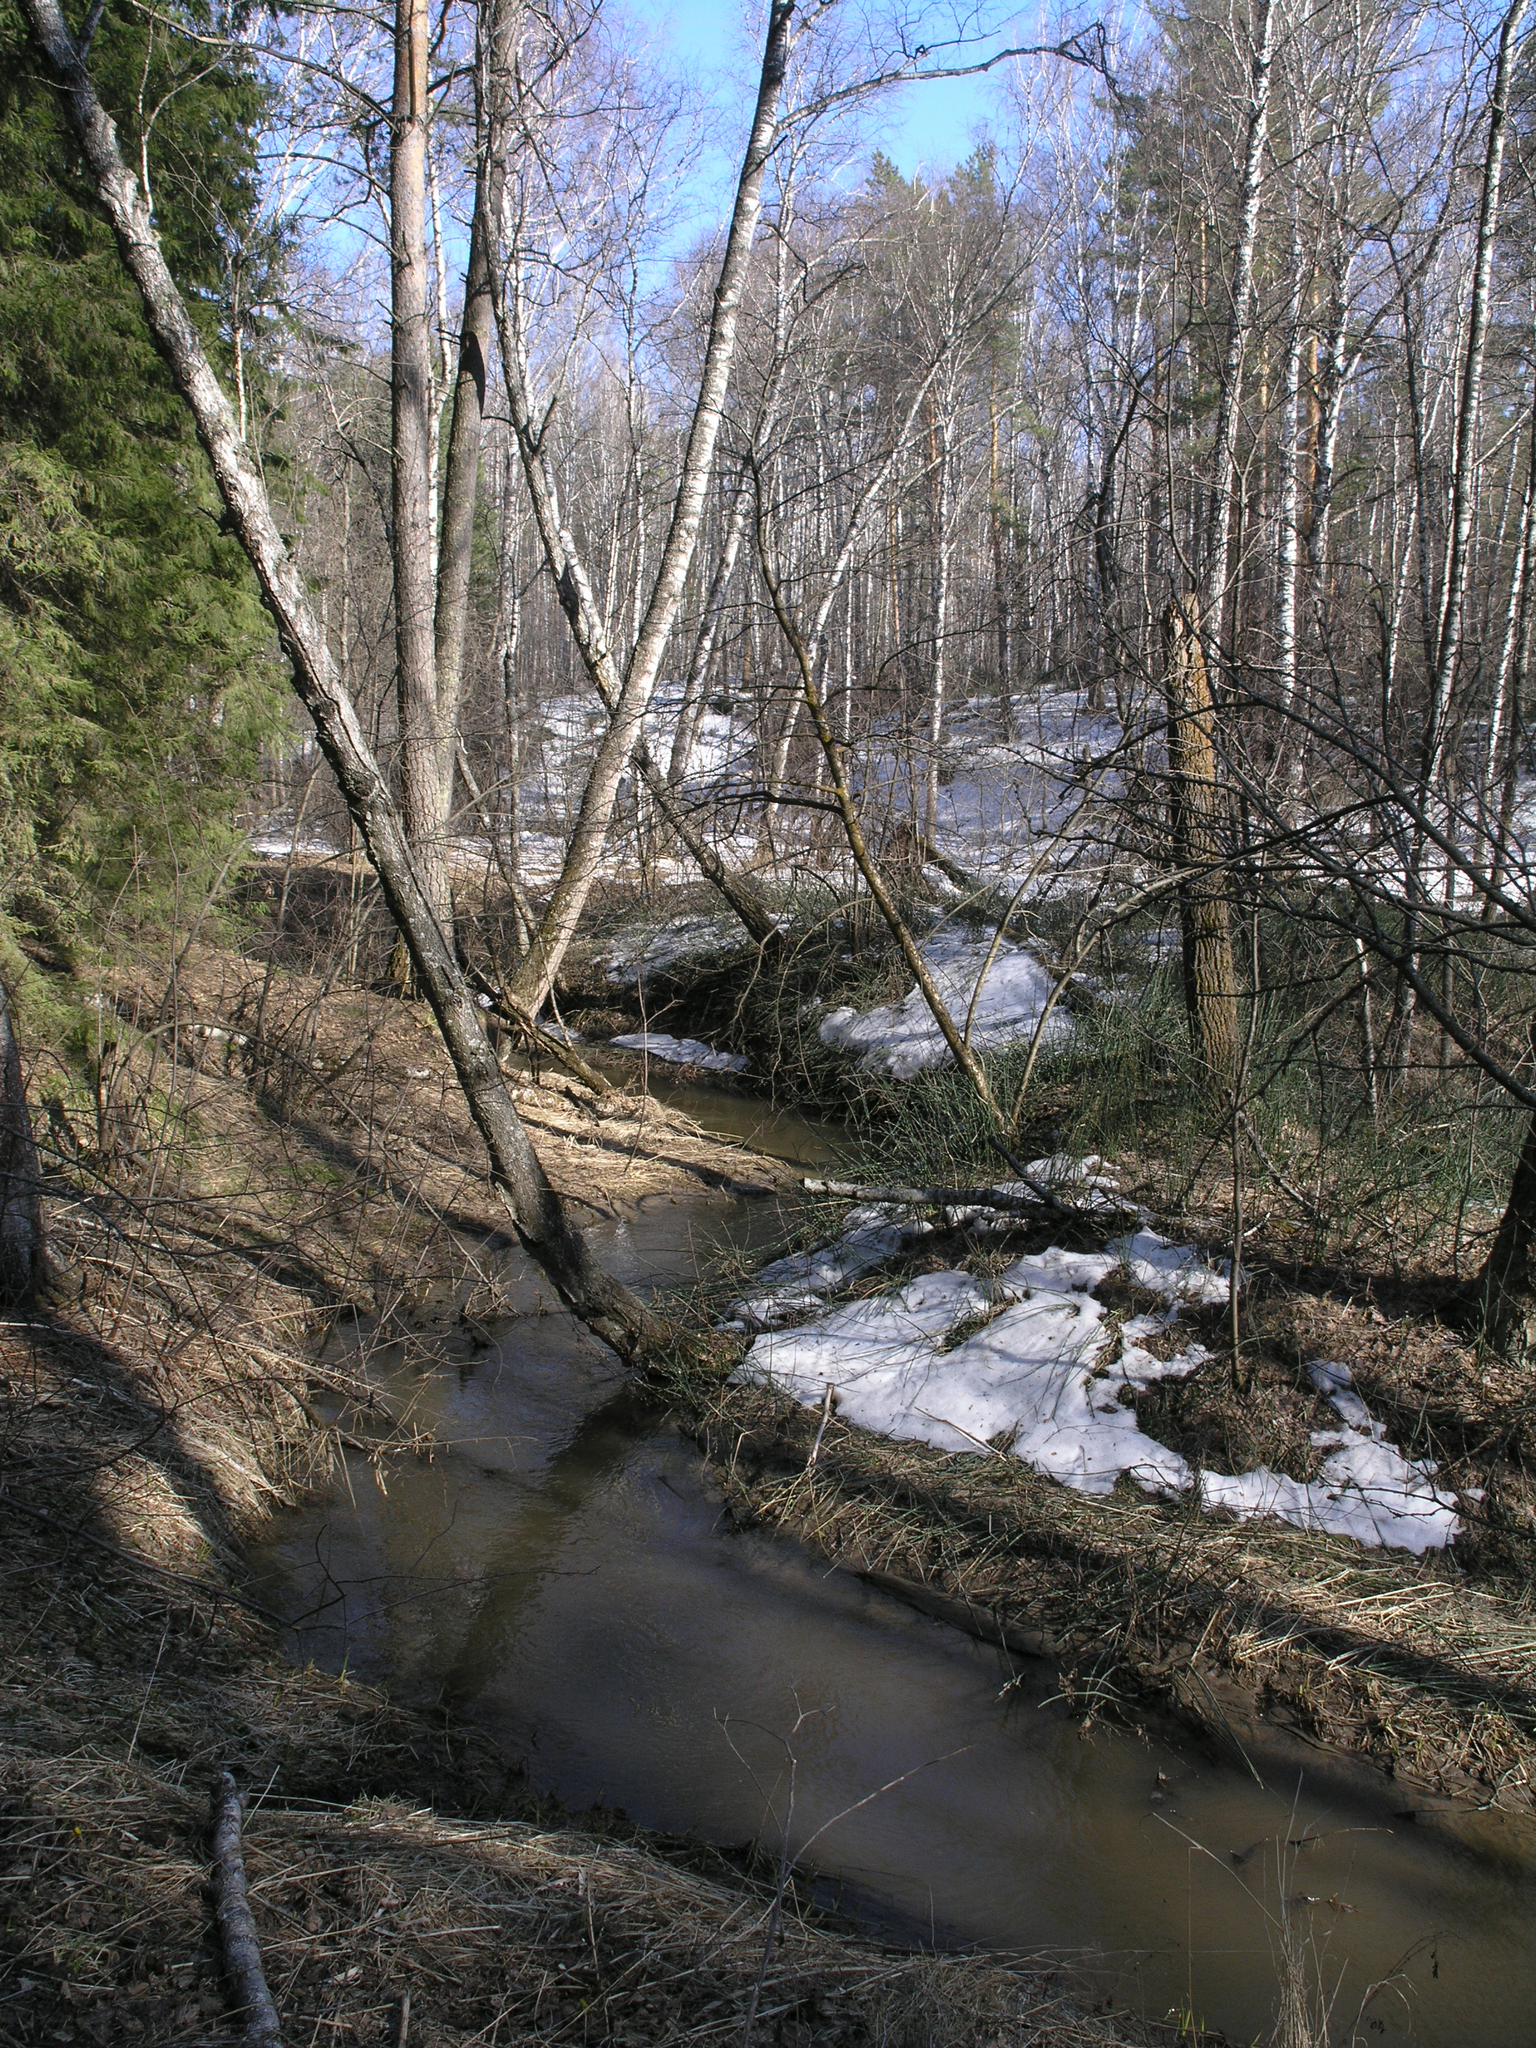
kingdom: Plantae
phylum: Tracheophyta
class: Magnoliopsida
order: Malpighiales
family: Salicaceae
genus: Populus
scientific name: Populus tremula
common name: European aspen
